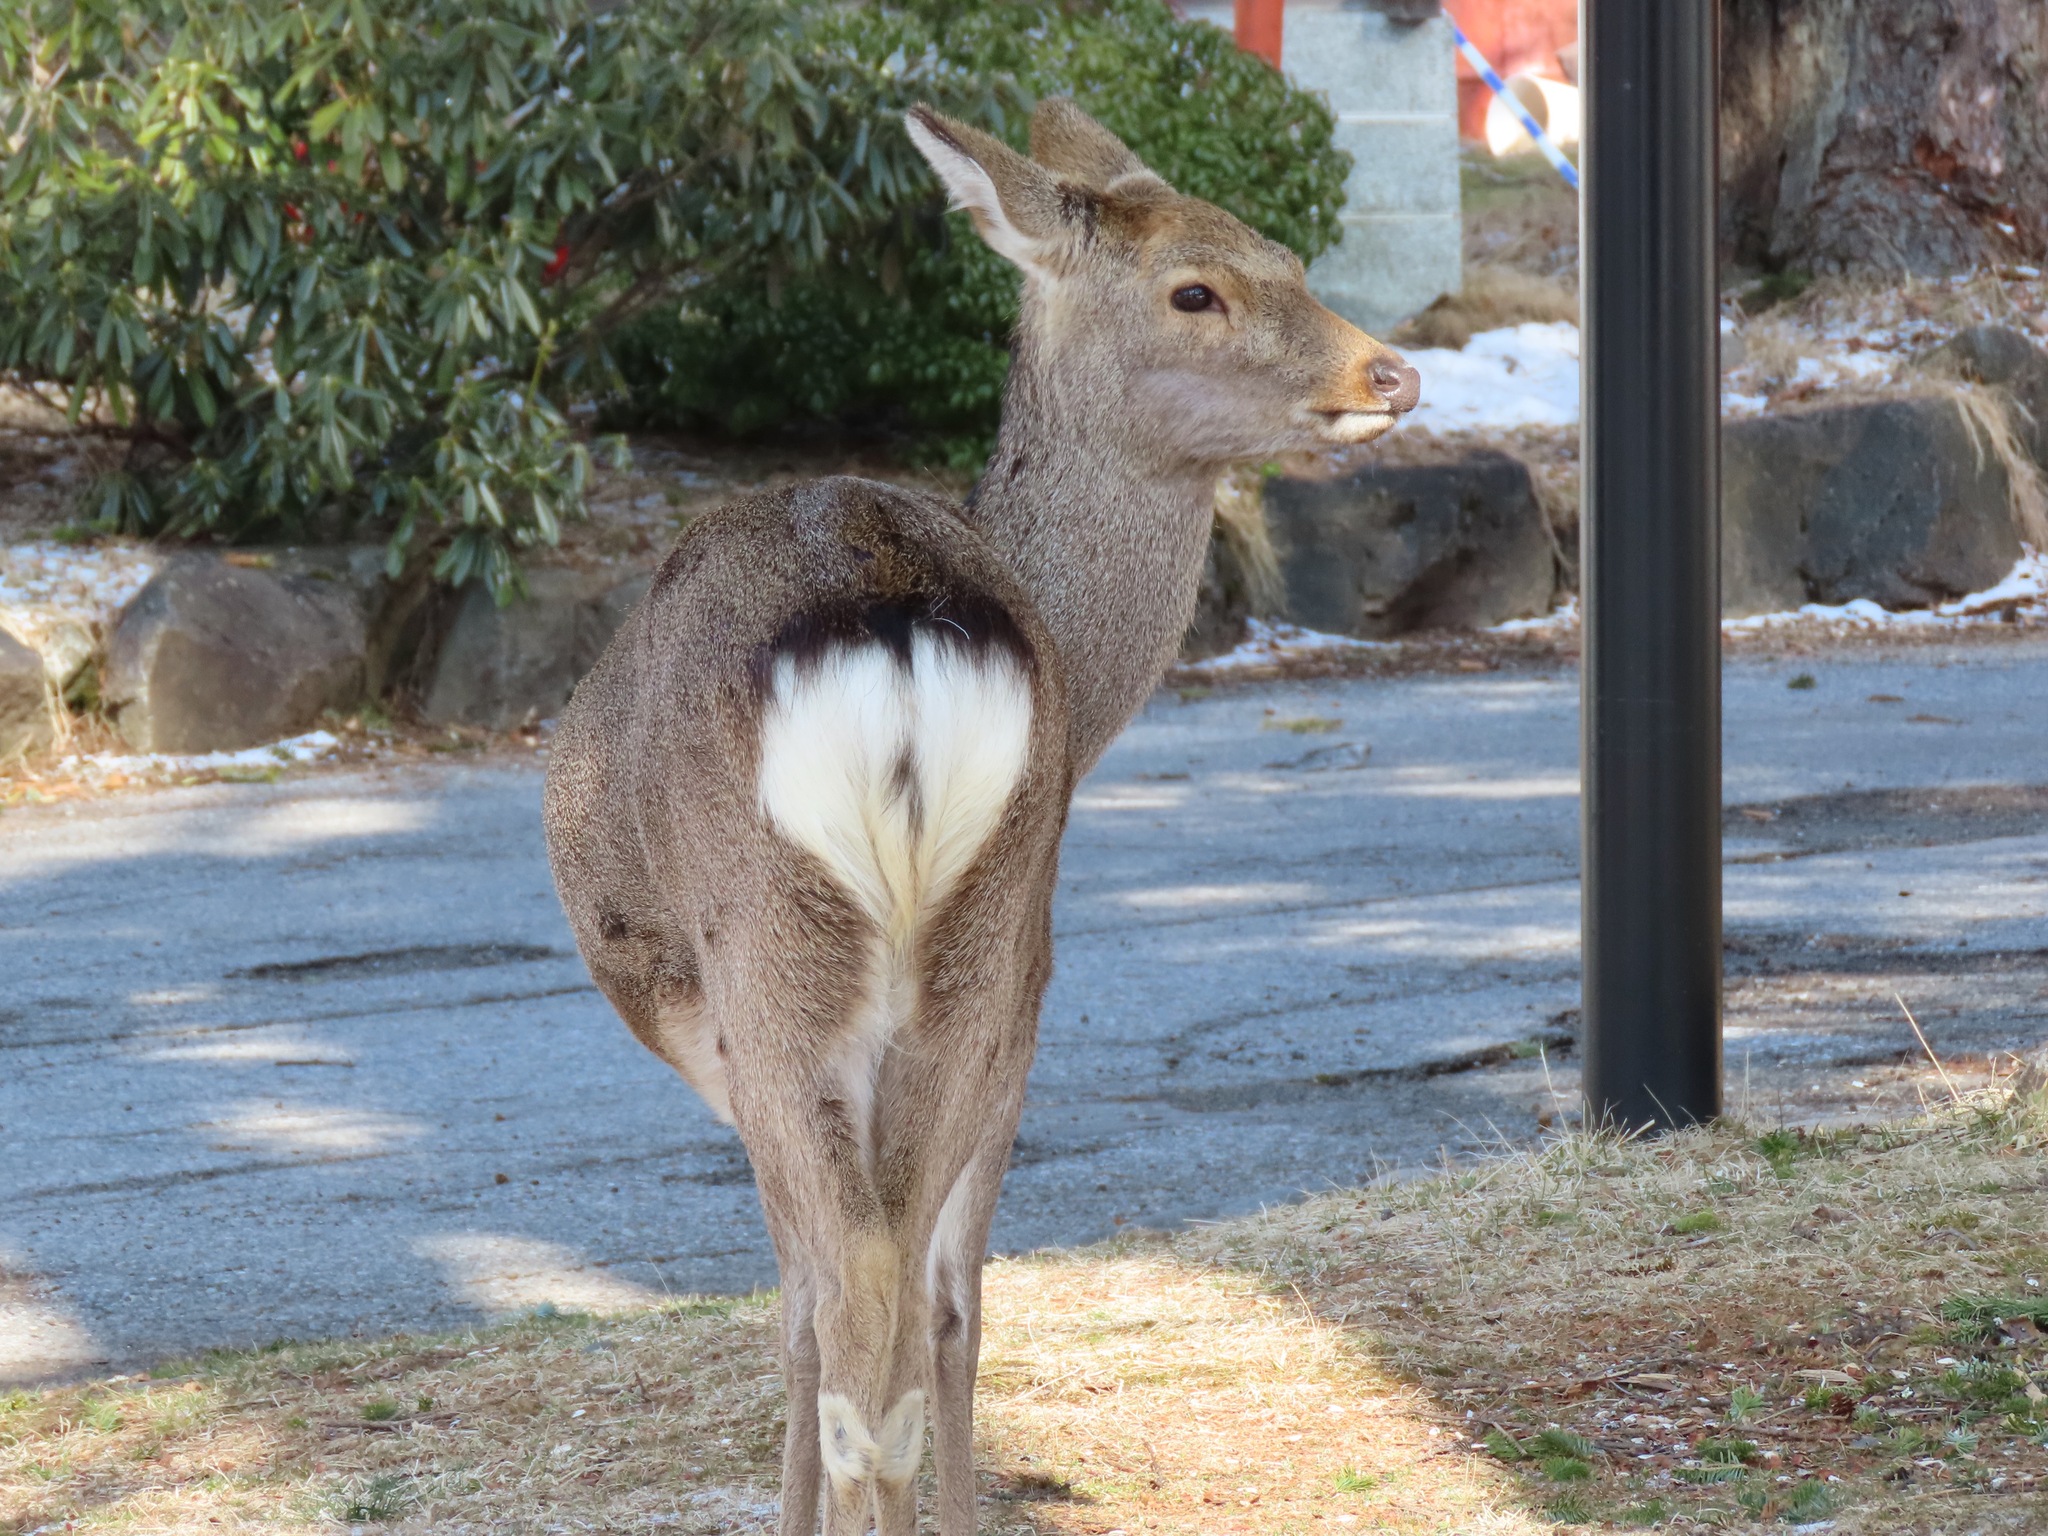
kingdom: Animalia
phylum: Chordata
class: Mammalia
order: Artiodactyla
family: Cervidae
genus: Cervus
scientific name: Cervus nippon
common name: Sika deer
